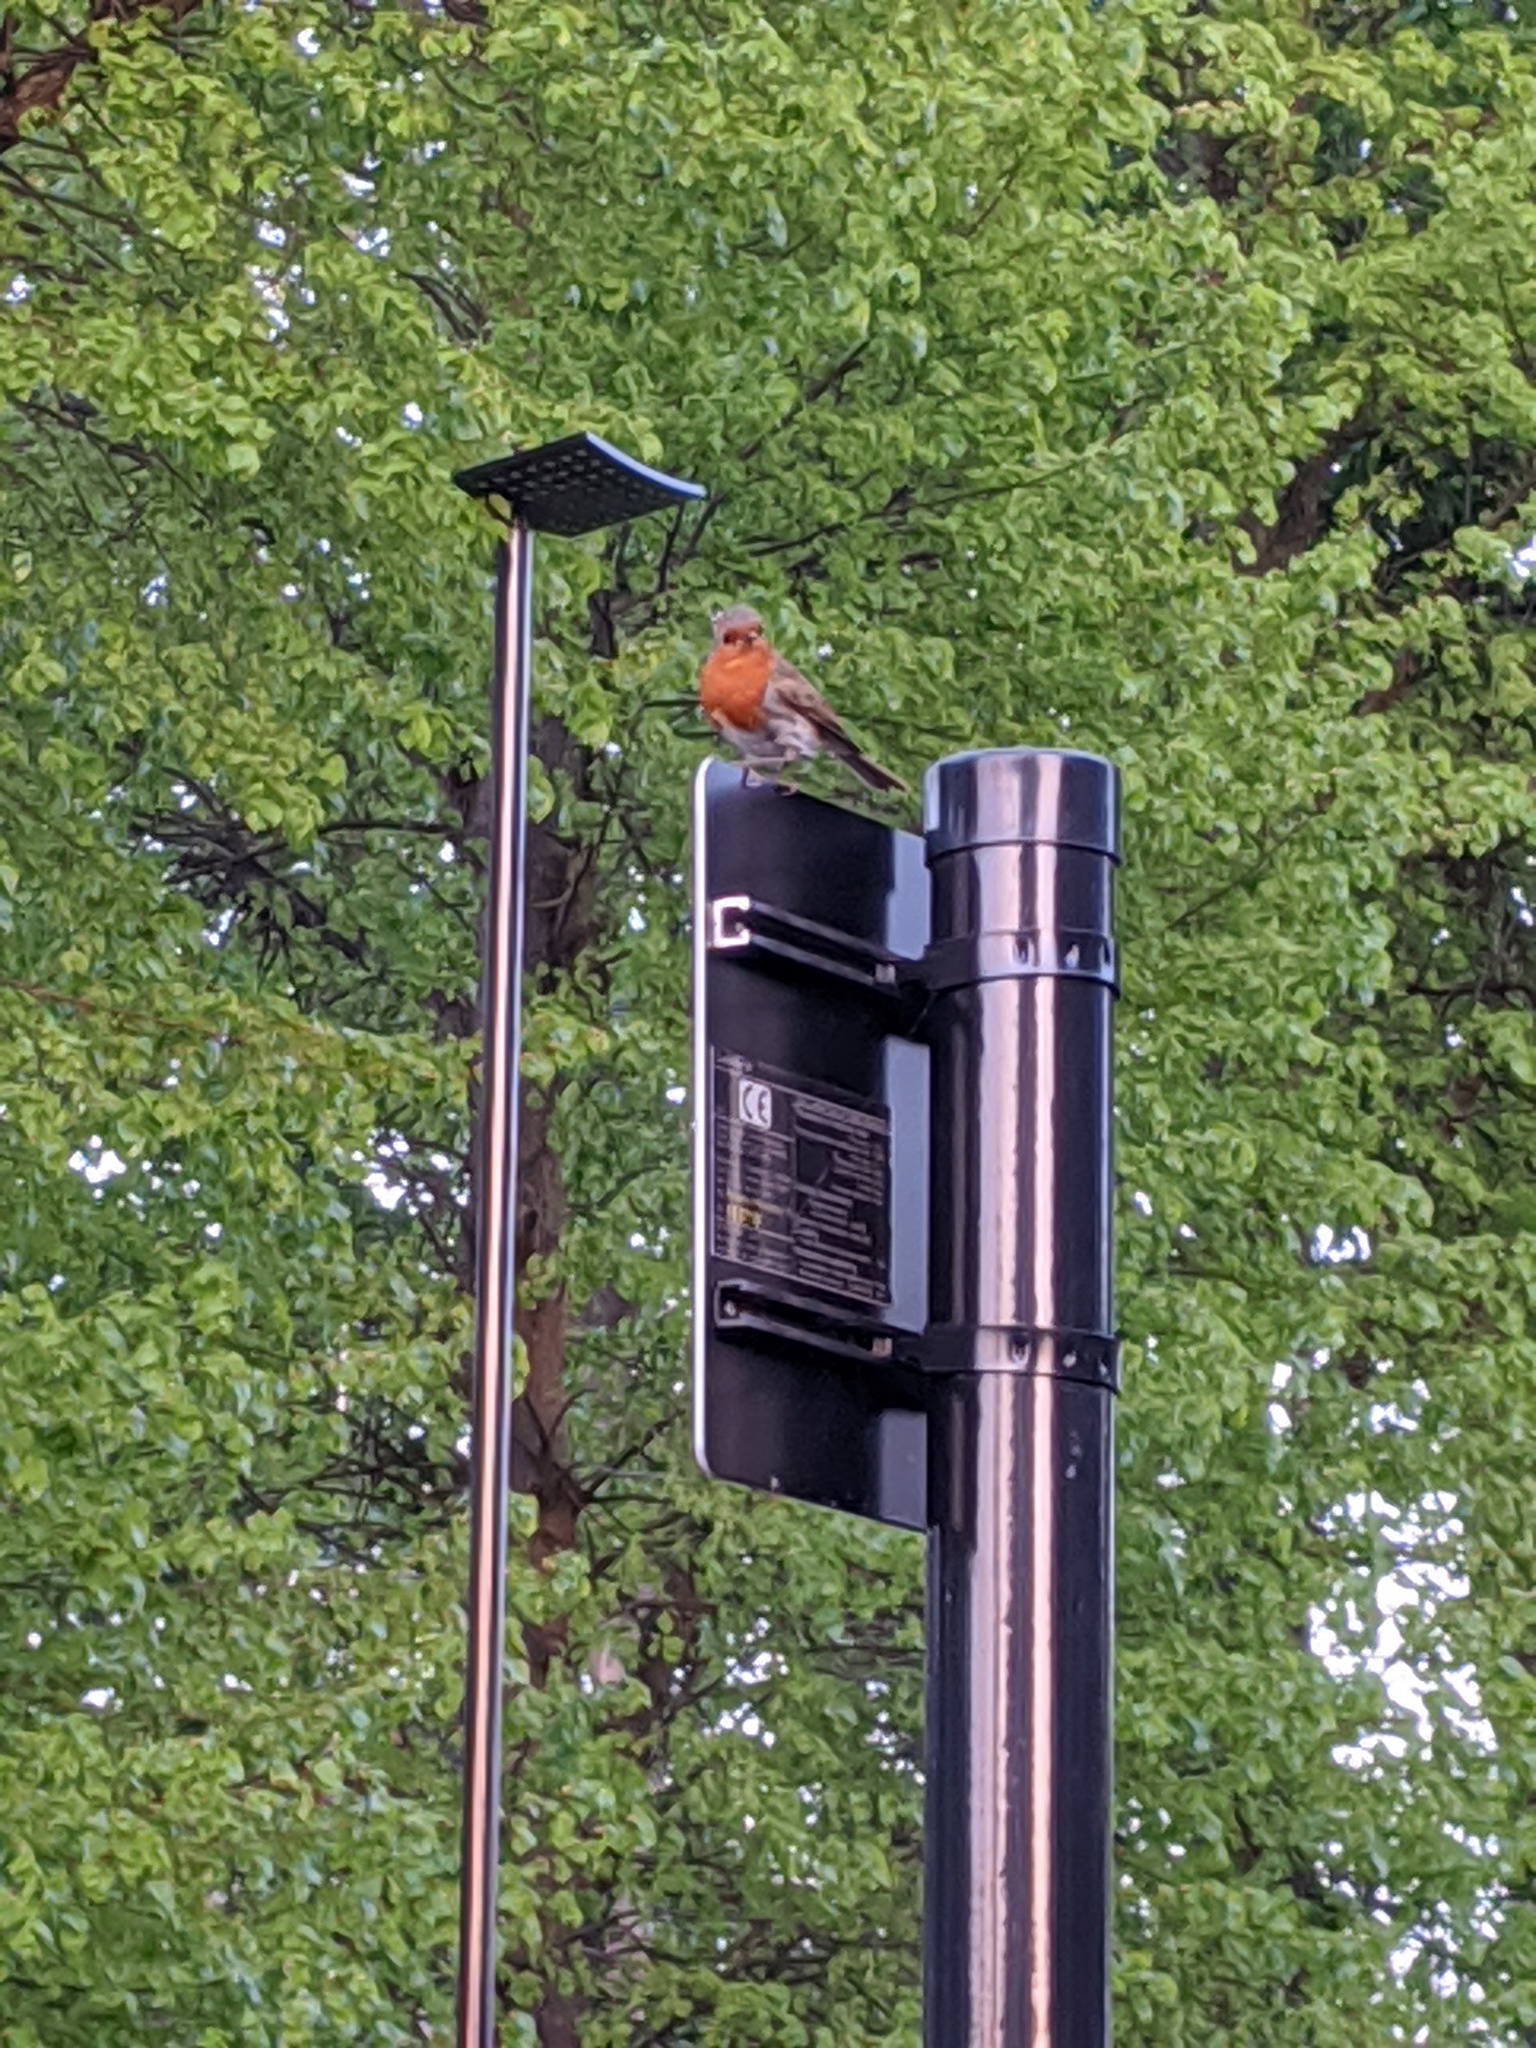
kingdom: Animalia
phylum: Chordata
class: Aves
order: Passeriformes
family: Muscicapidae
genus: Erithacus
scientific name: Erithacus rubecula
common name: European robin
